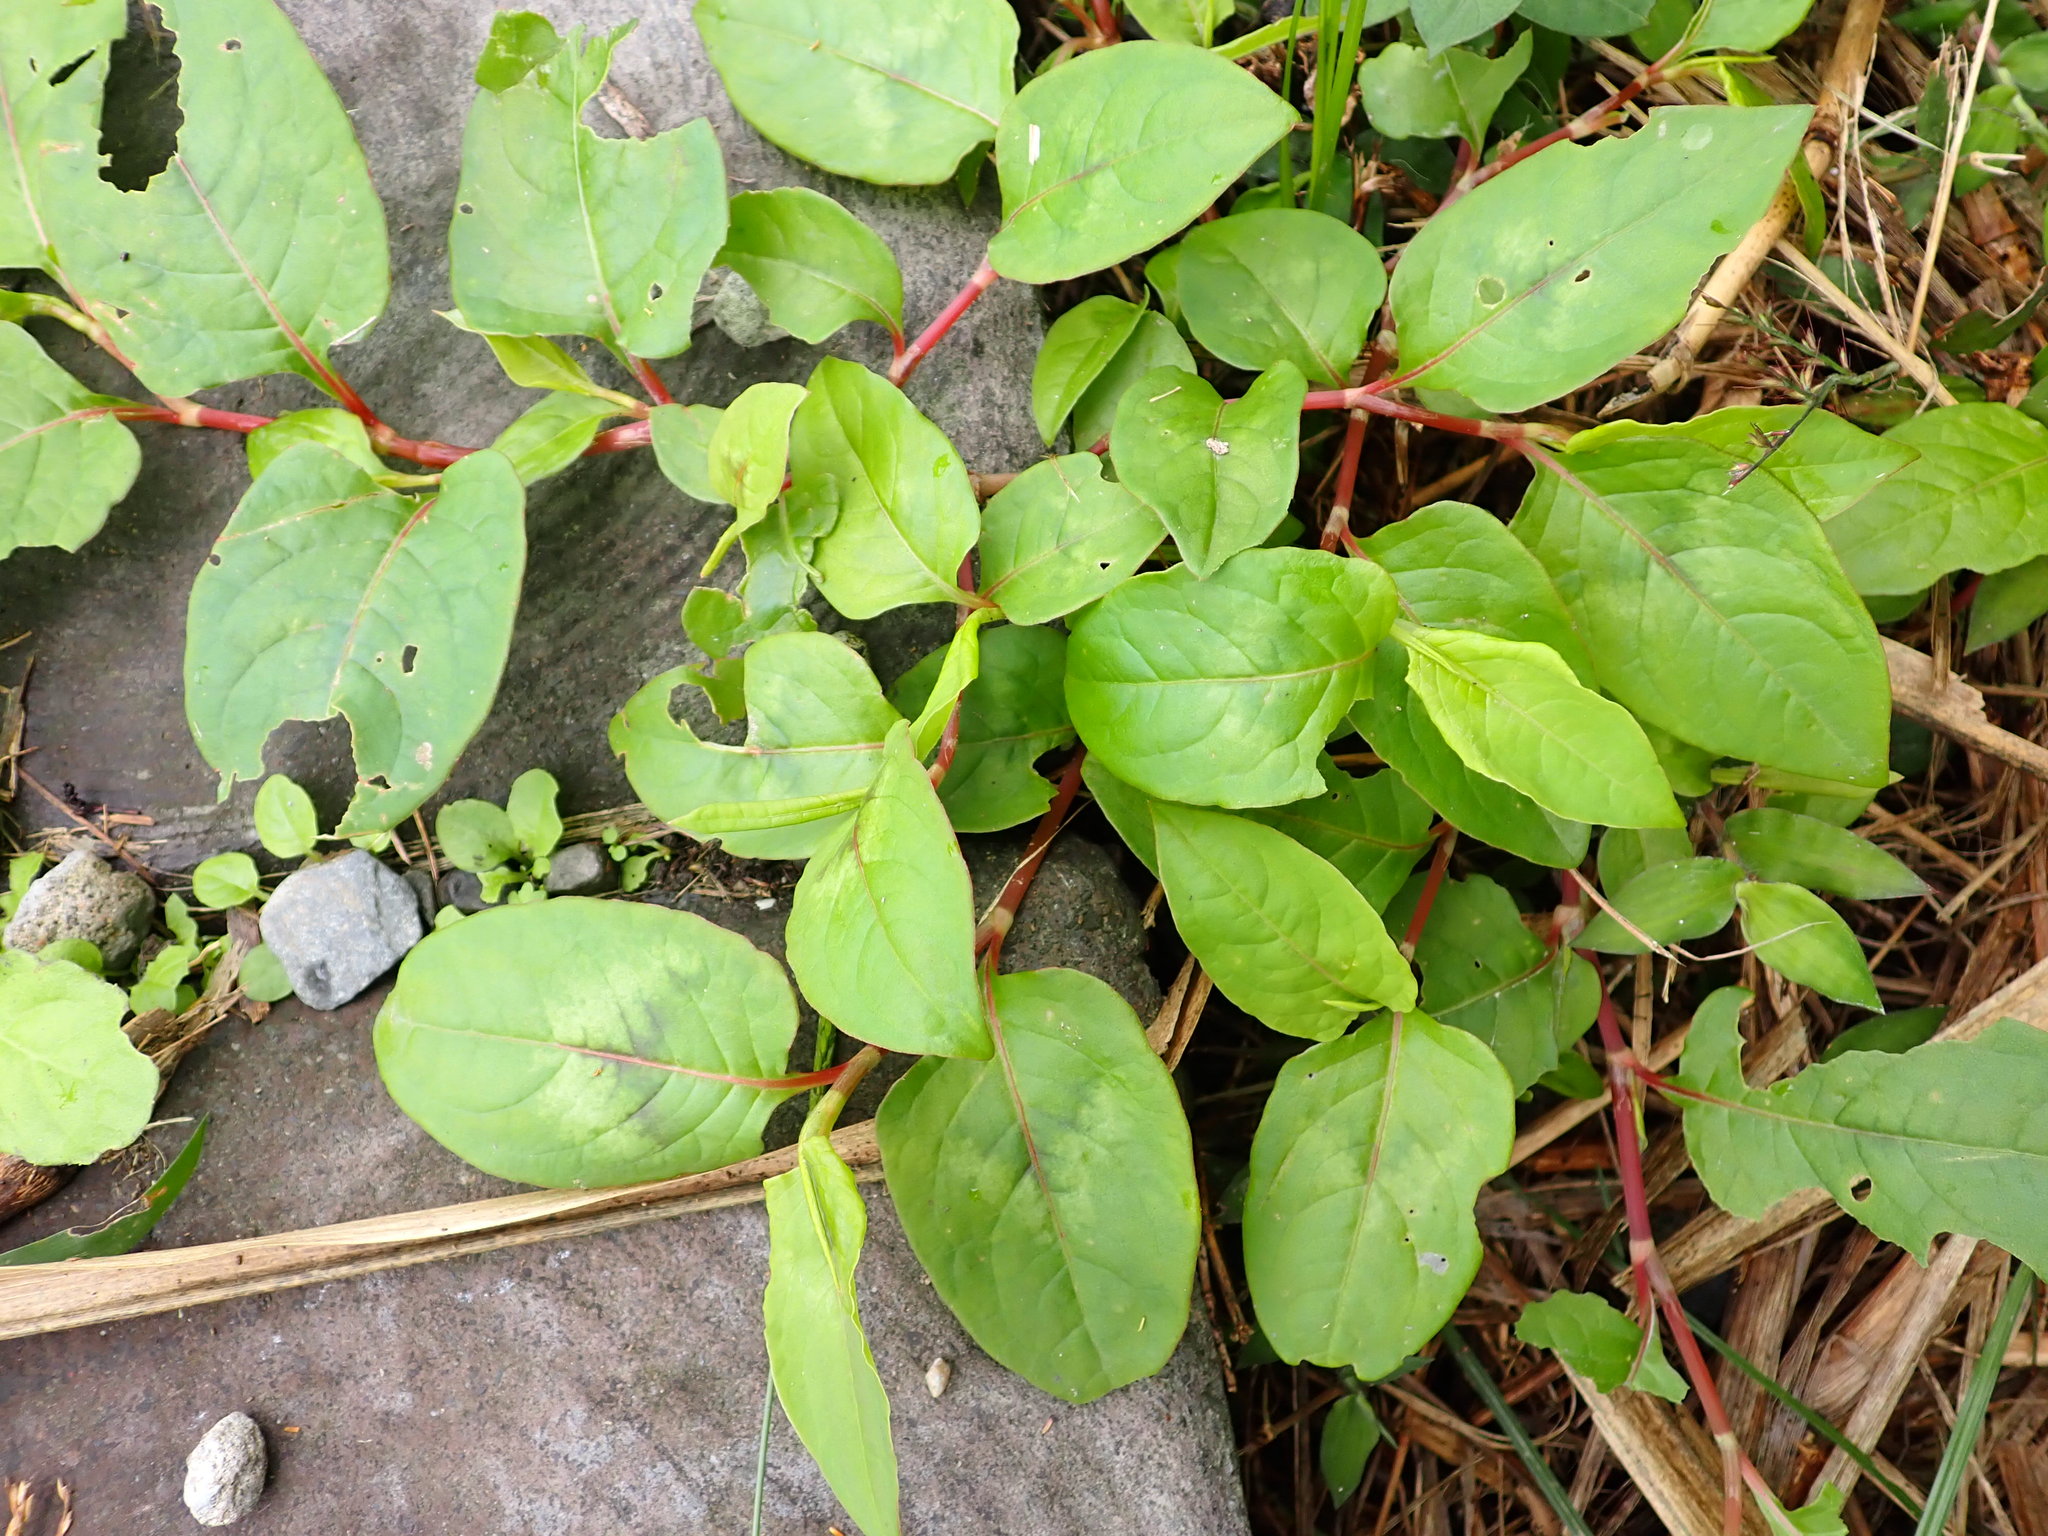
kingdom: Plantae
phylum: Tracheophyta
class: Magnoliopsida
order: Caryophyllales
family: Polygonaceae
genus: Persicaria
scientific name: Persicaria chinensis
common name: Chinese knotweed
